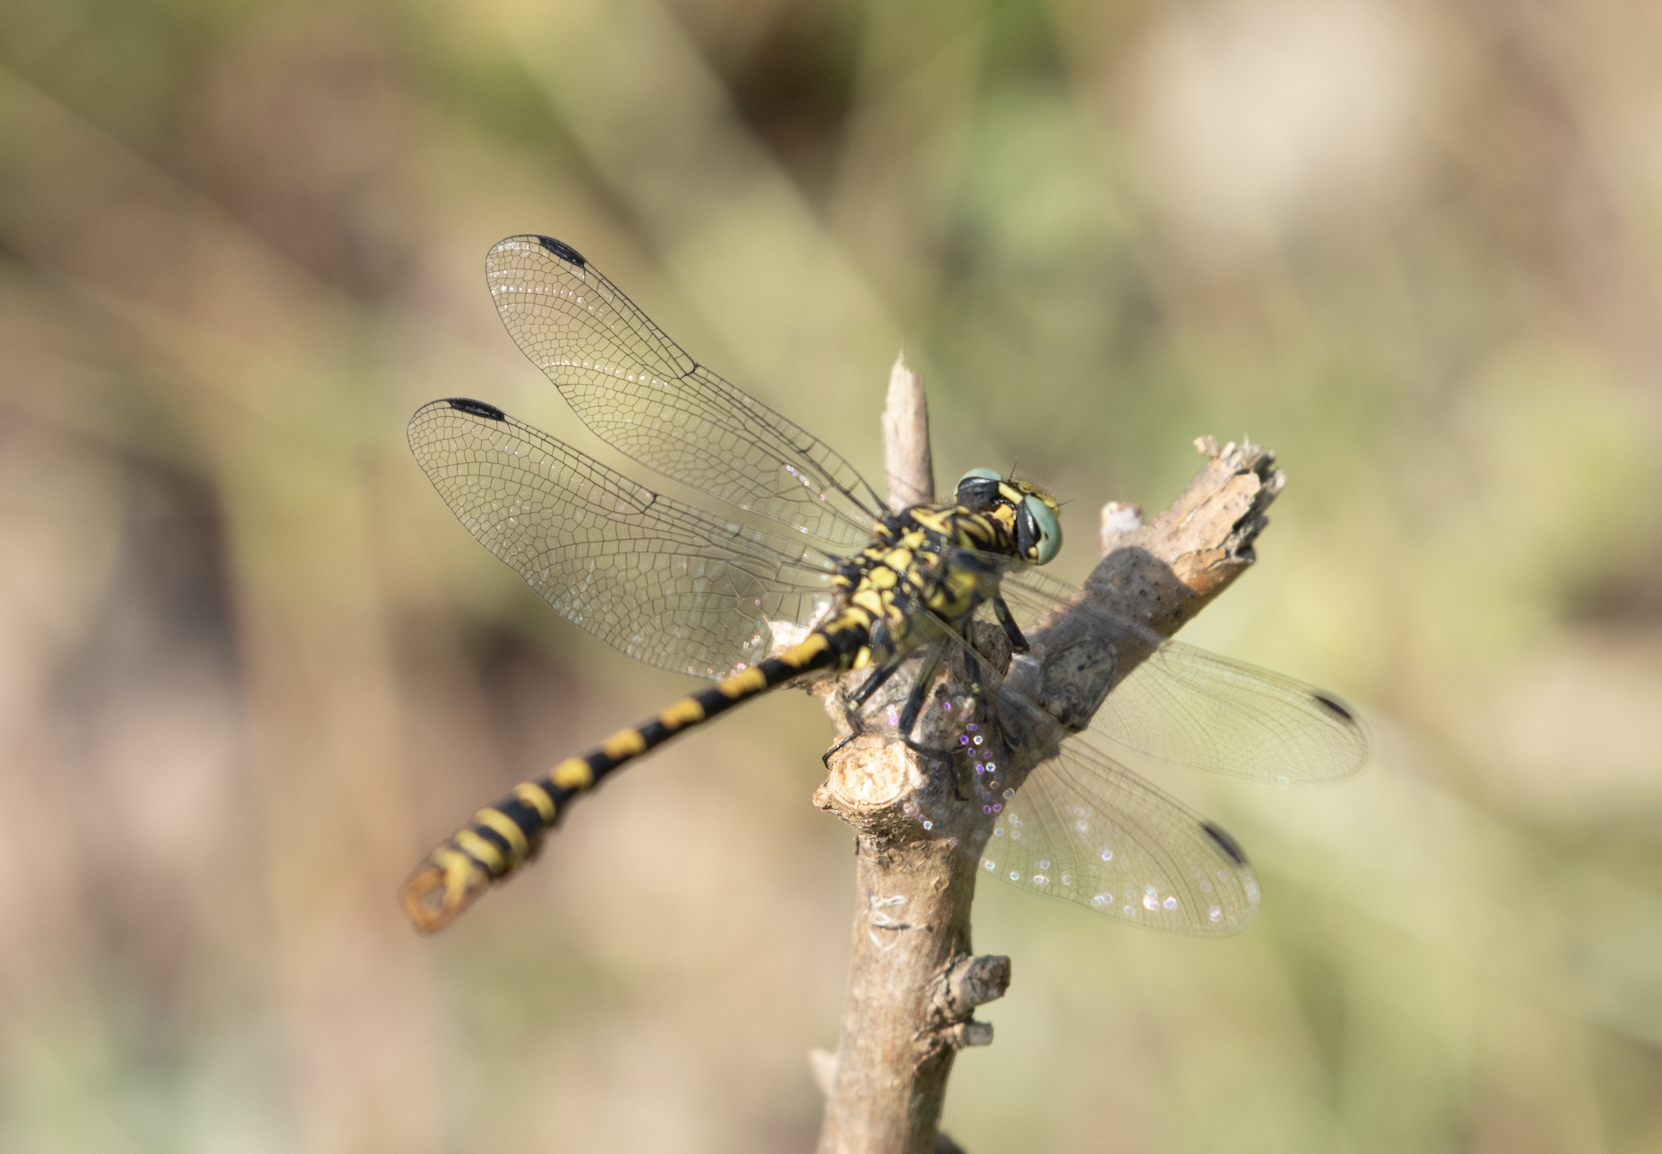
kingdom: Animalia
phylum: Arthropoda
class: Insecta
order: Odonata
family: Gomphidae
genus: Onychogomphus
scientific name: Onychogomphus forcipatus
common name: Small pincertail
